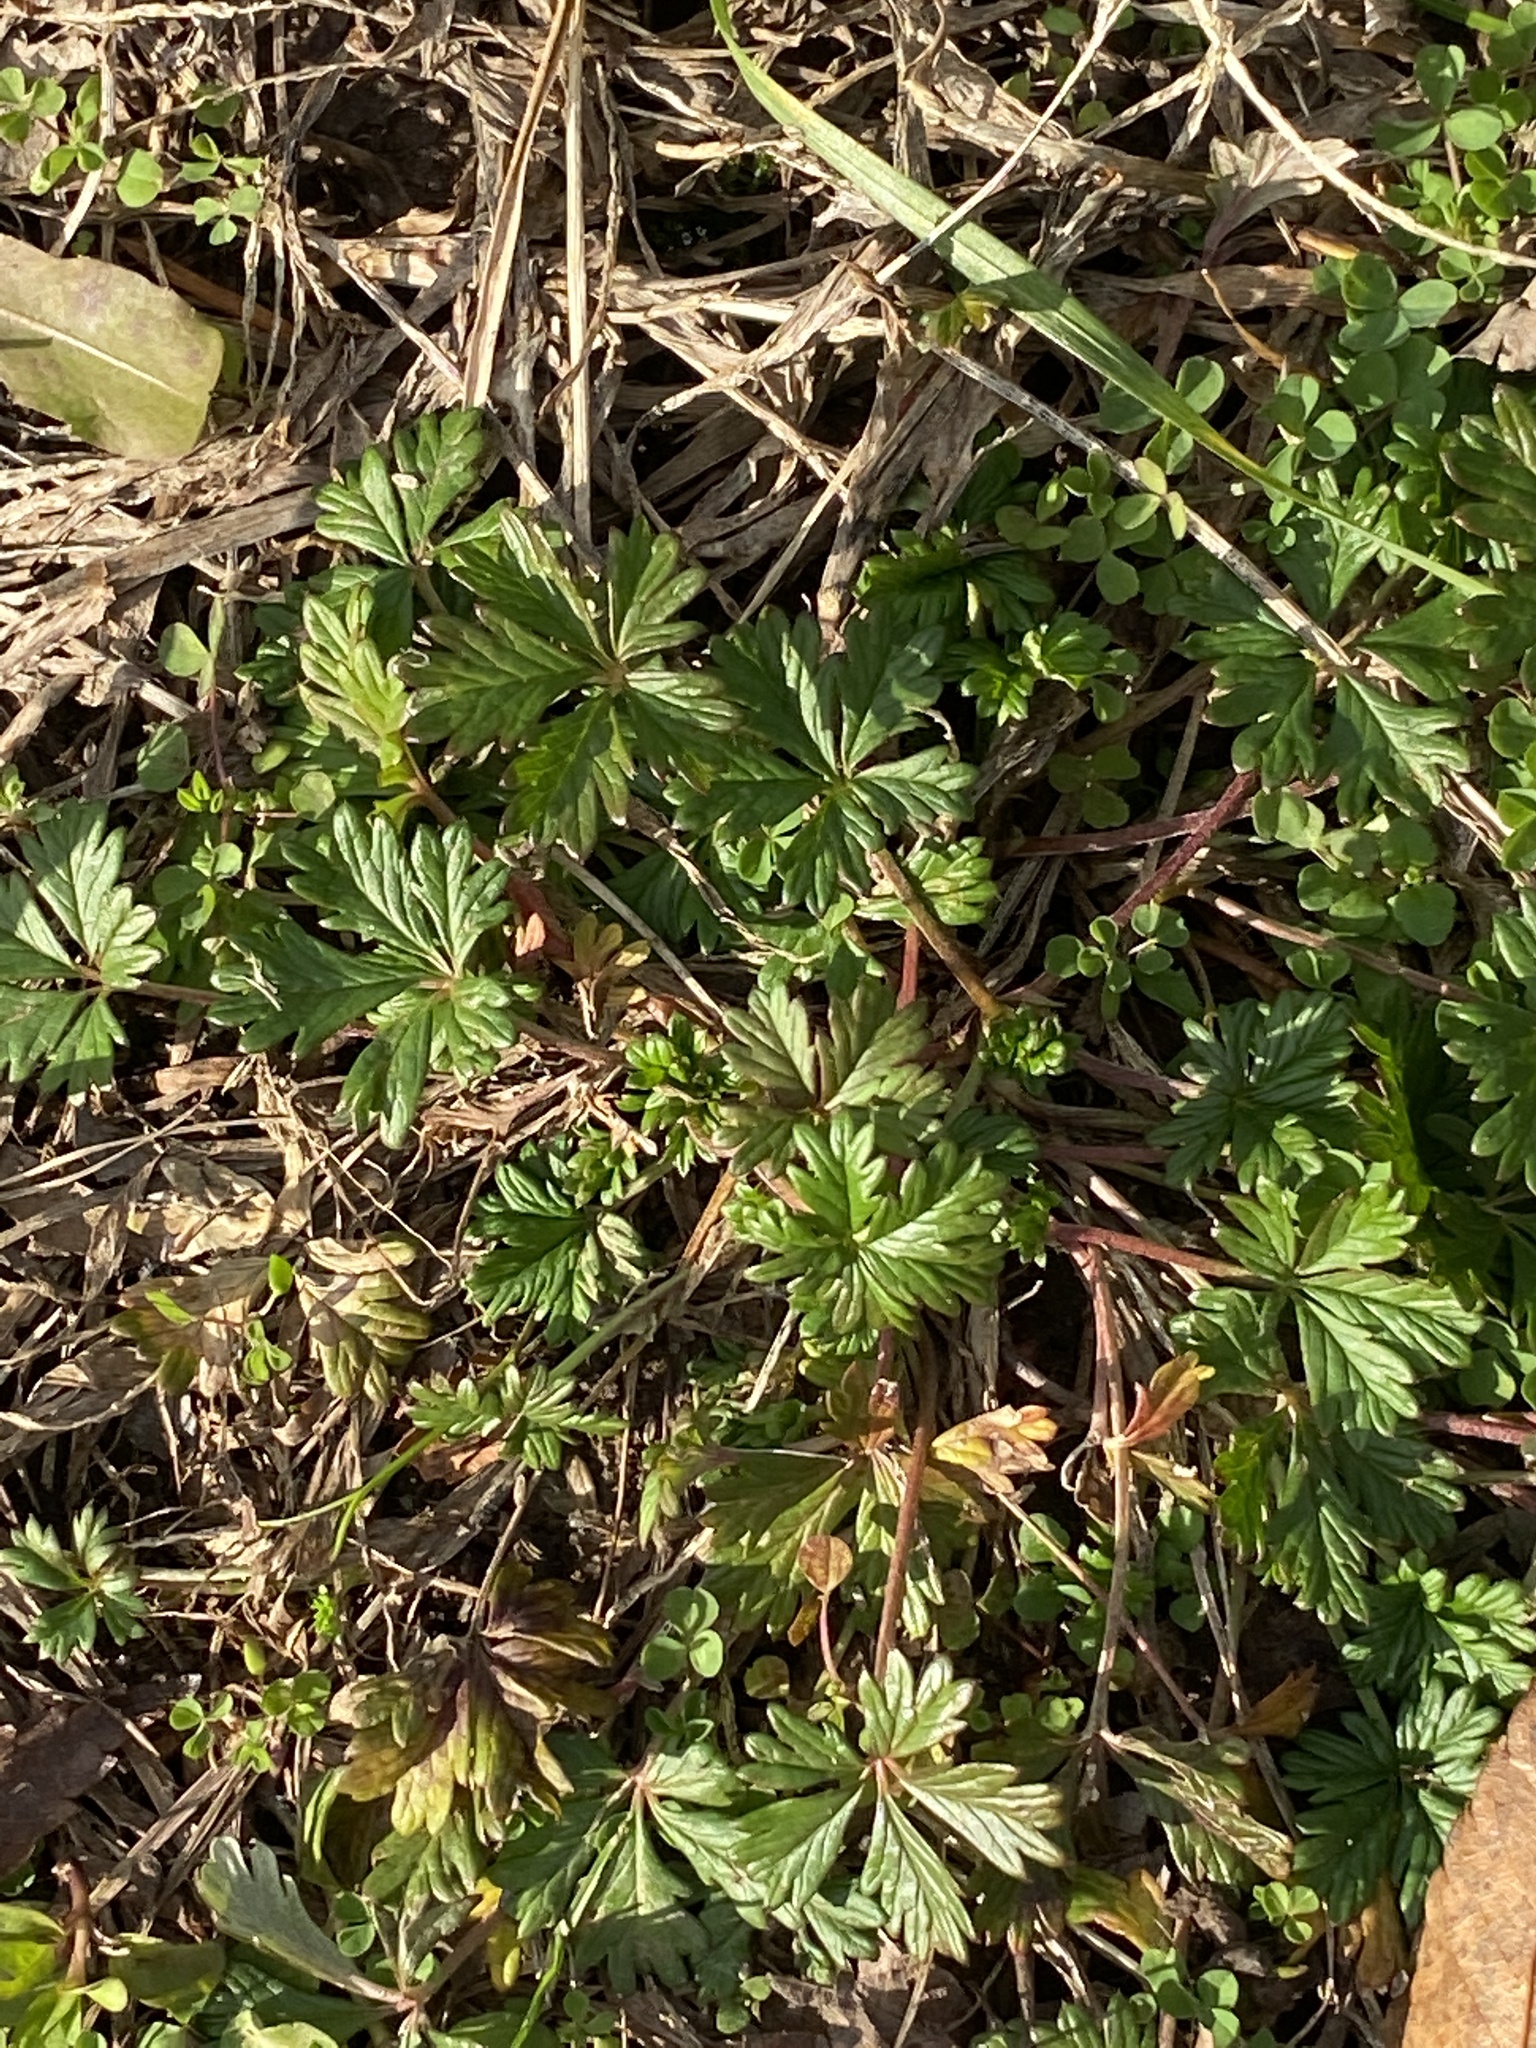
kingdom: Plantae
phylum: Tracheophyta
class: Magnoliopsida
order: Rosales
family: Rosaceae
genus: Potentilla
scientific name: Potentilla argentea
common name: Hoary cinquefoil
